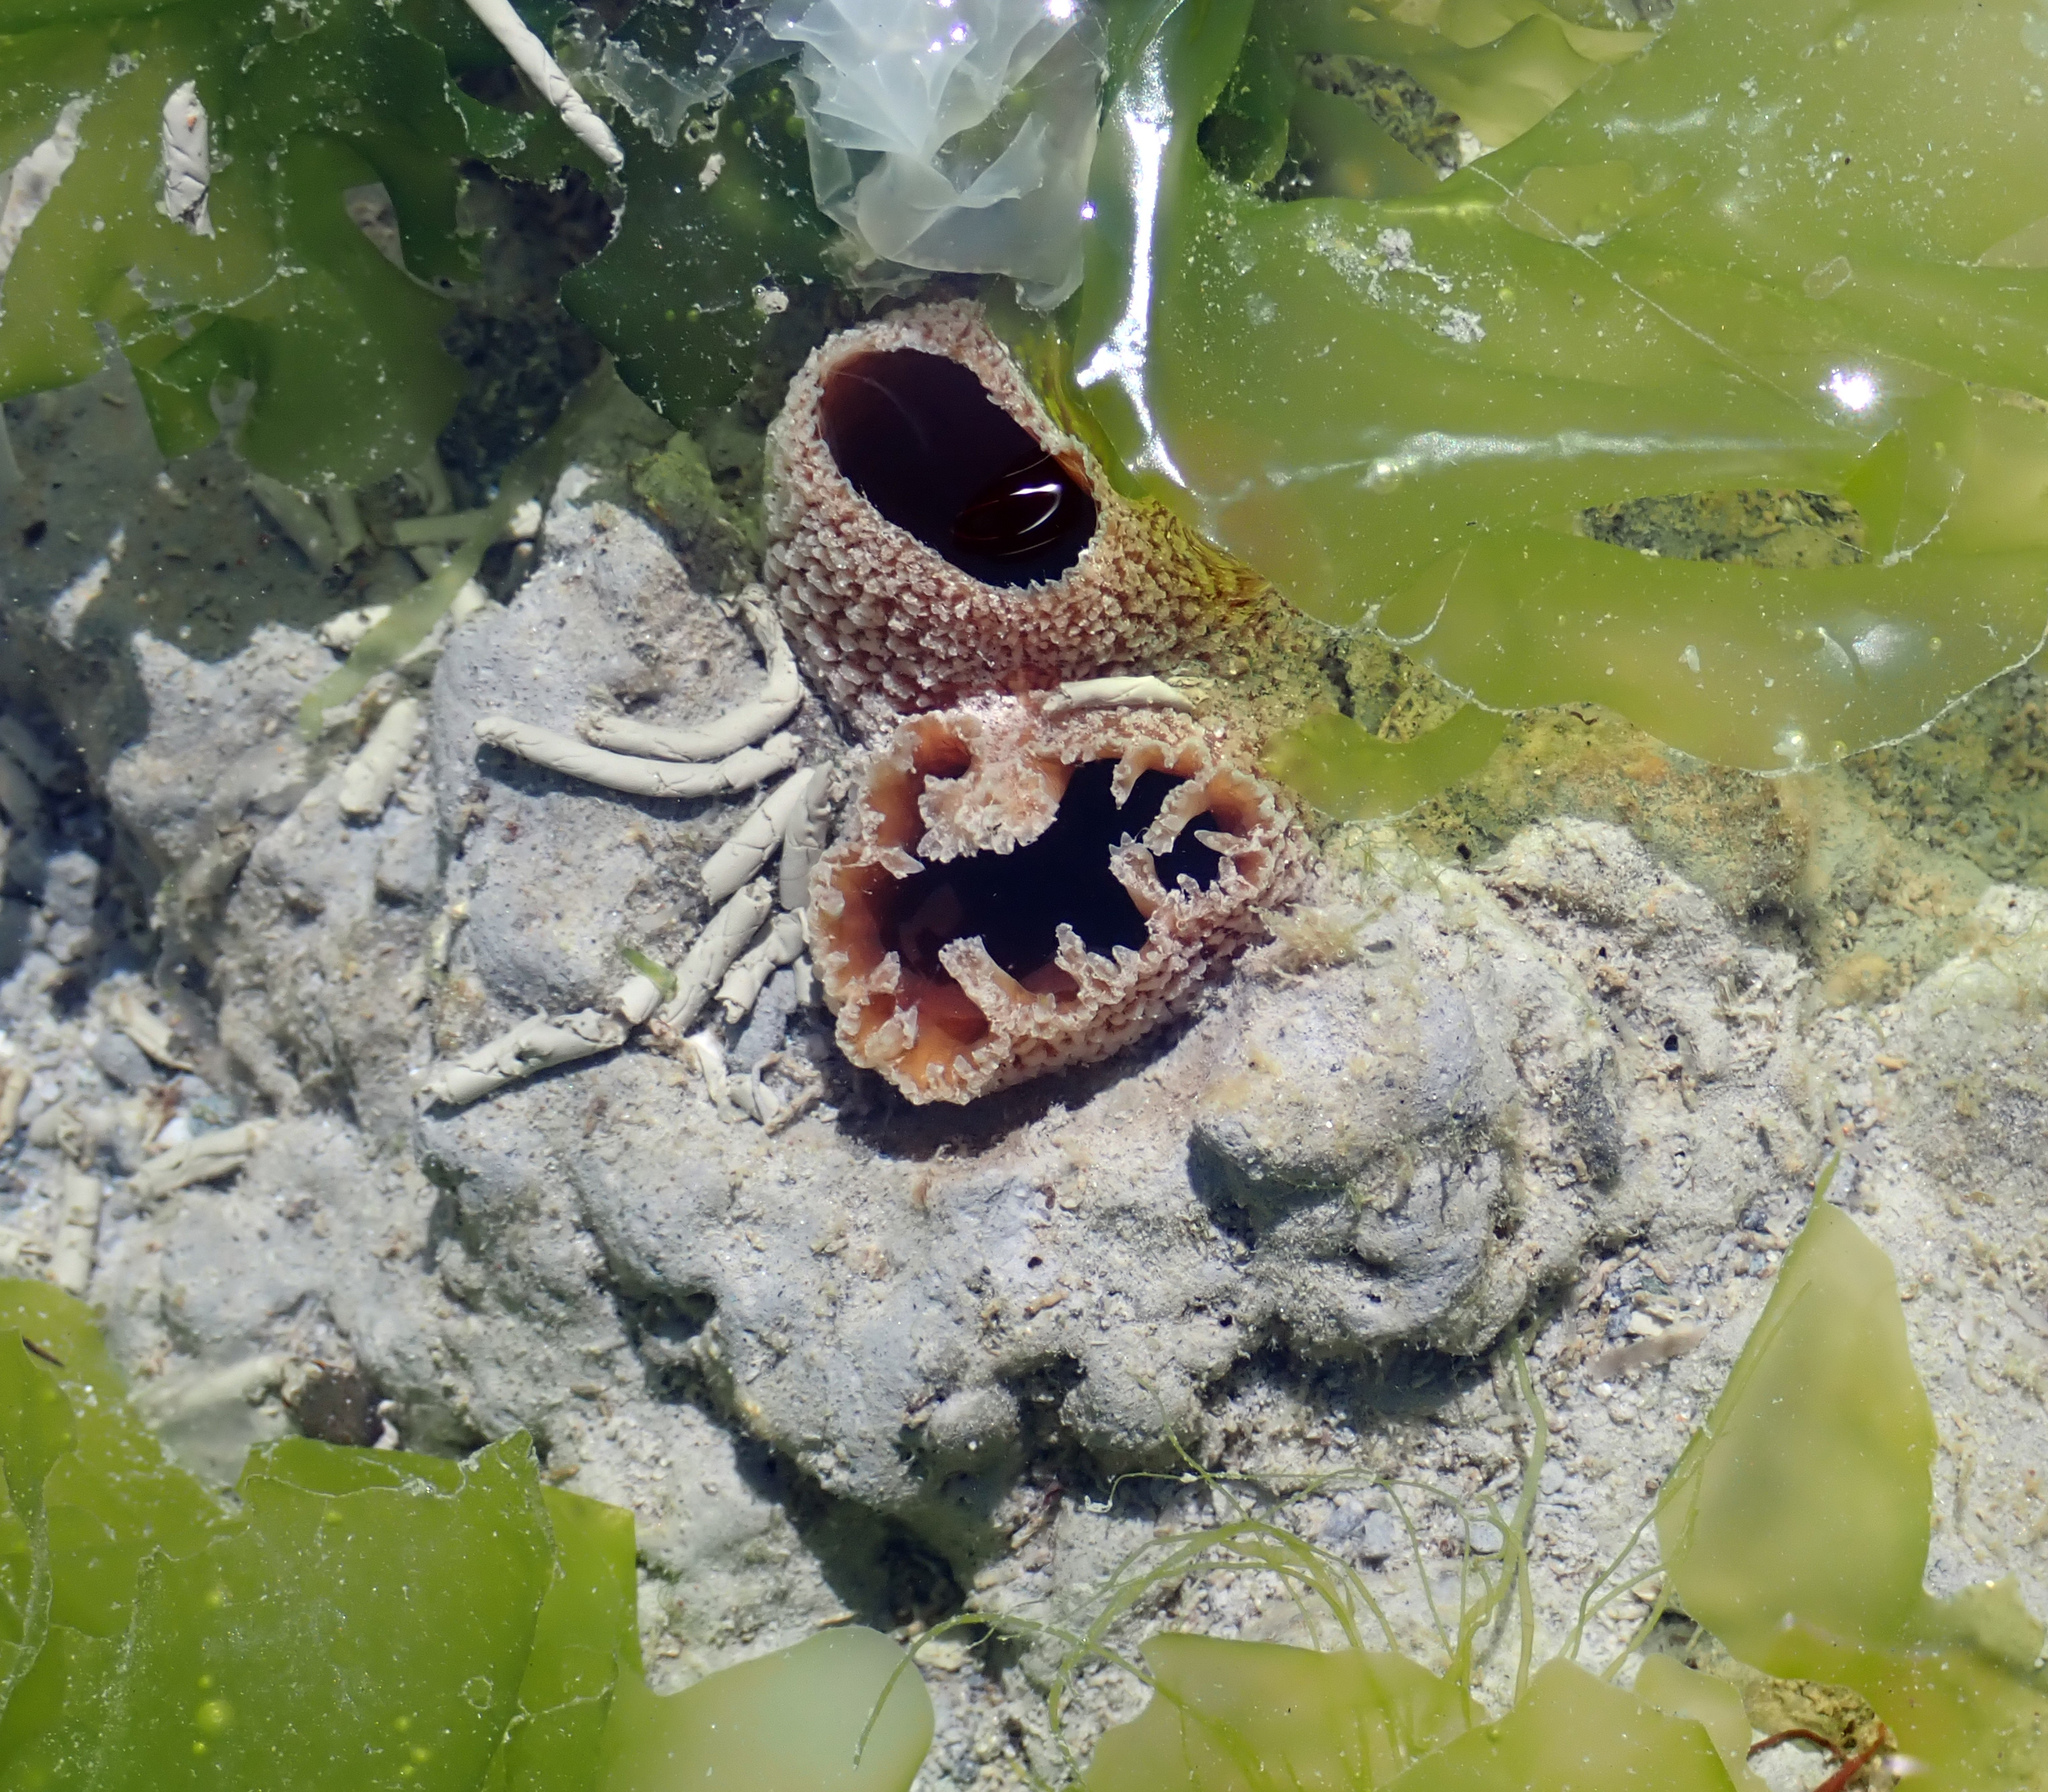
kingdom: Animalia
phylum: Mollusca
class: Bivalvia
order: Myida
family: Pholadidae
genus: Zirfaea
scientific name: Zirfaea pilsbryi
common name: Rough piddock
